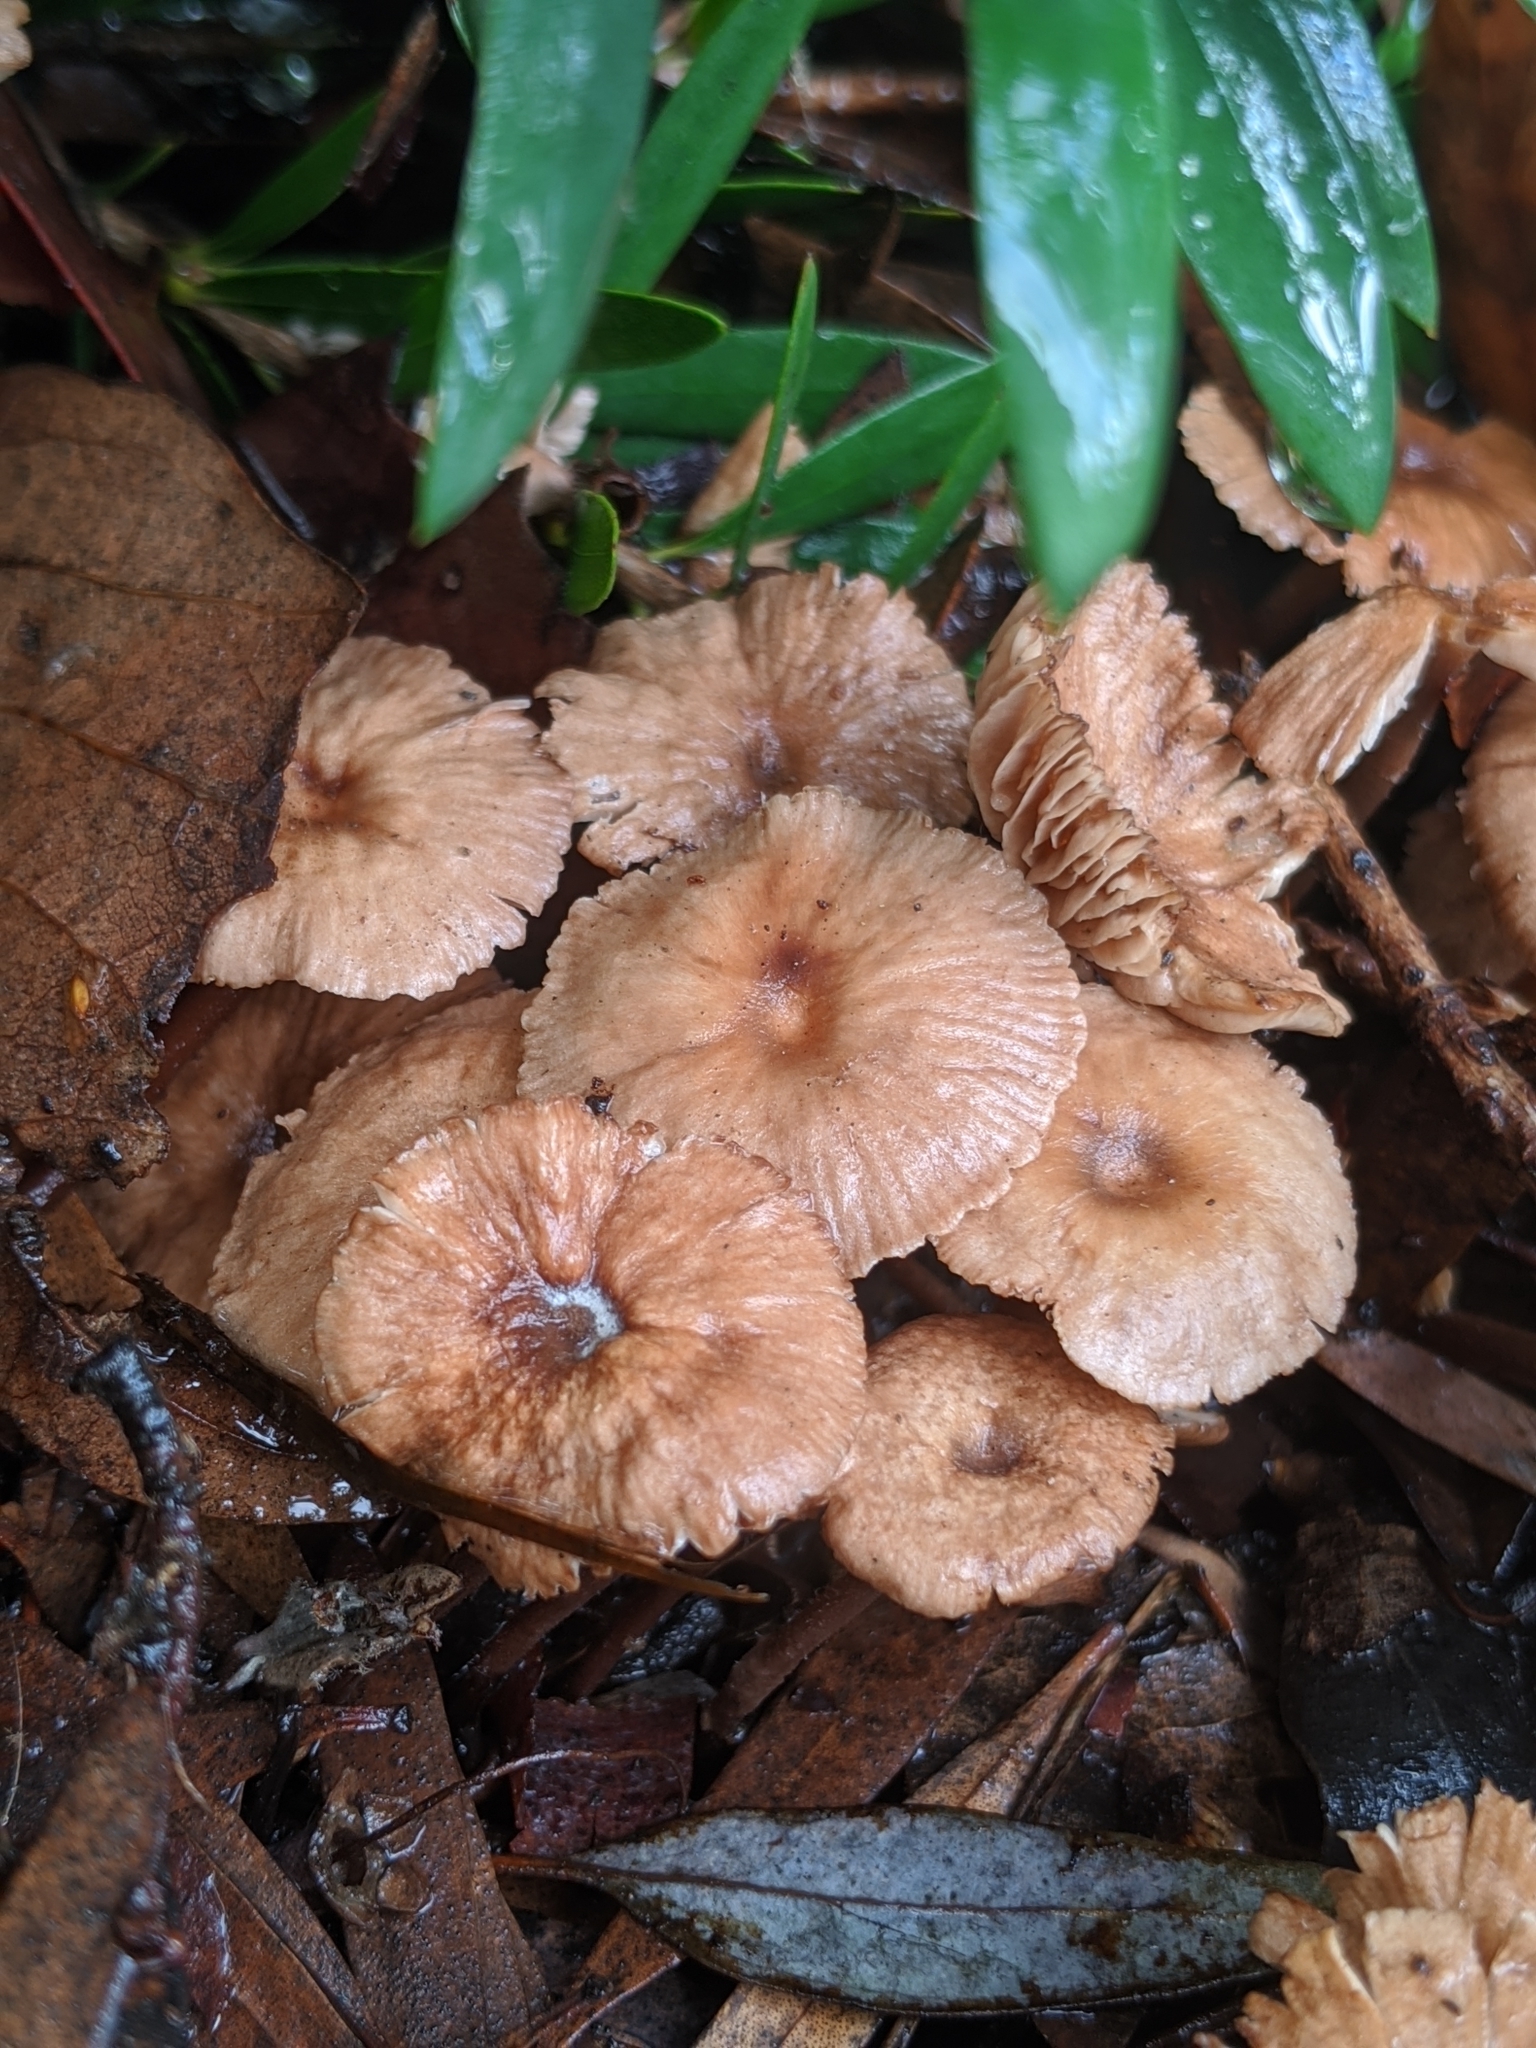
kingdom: Fungi
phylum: Basidiomycota
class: Agaricomycetes
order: Agaricales
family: Omphalotaceae
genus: Collybiopsis
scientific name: Collybiopsis villosipes
